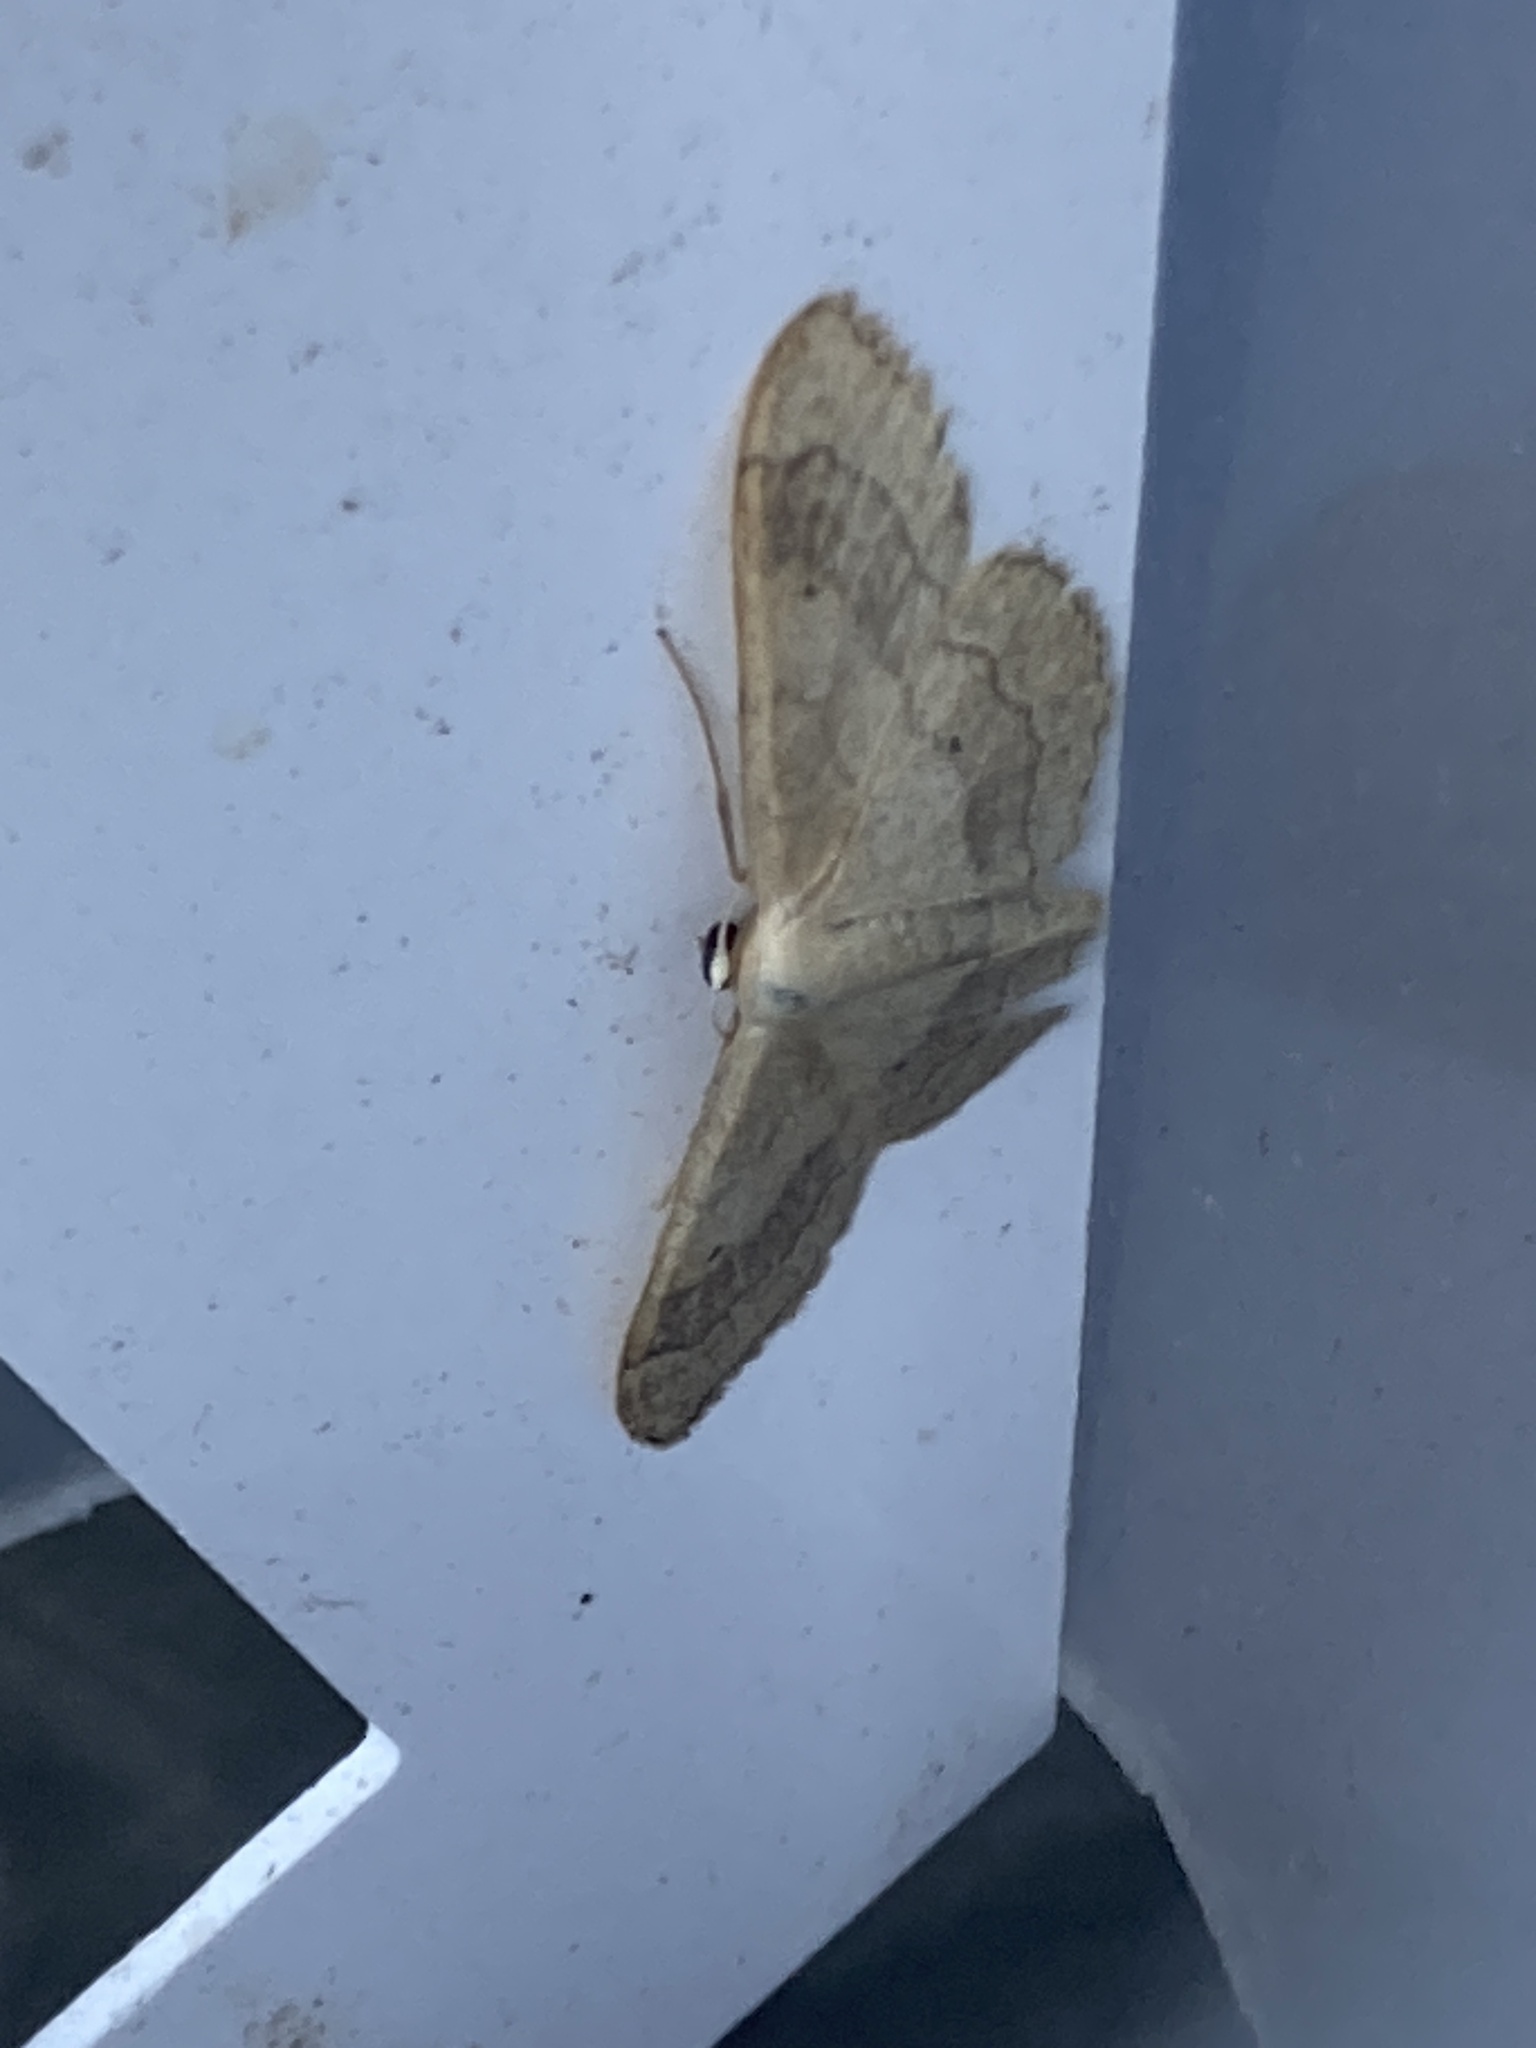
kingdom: Animalia
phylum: Arthropoda
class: Insecta
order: Lepidoptera
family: Geometridae
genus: Idaea
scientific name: Idaea aversata
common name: Riband wave
